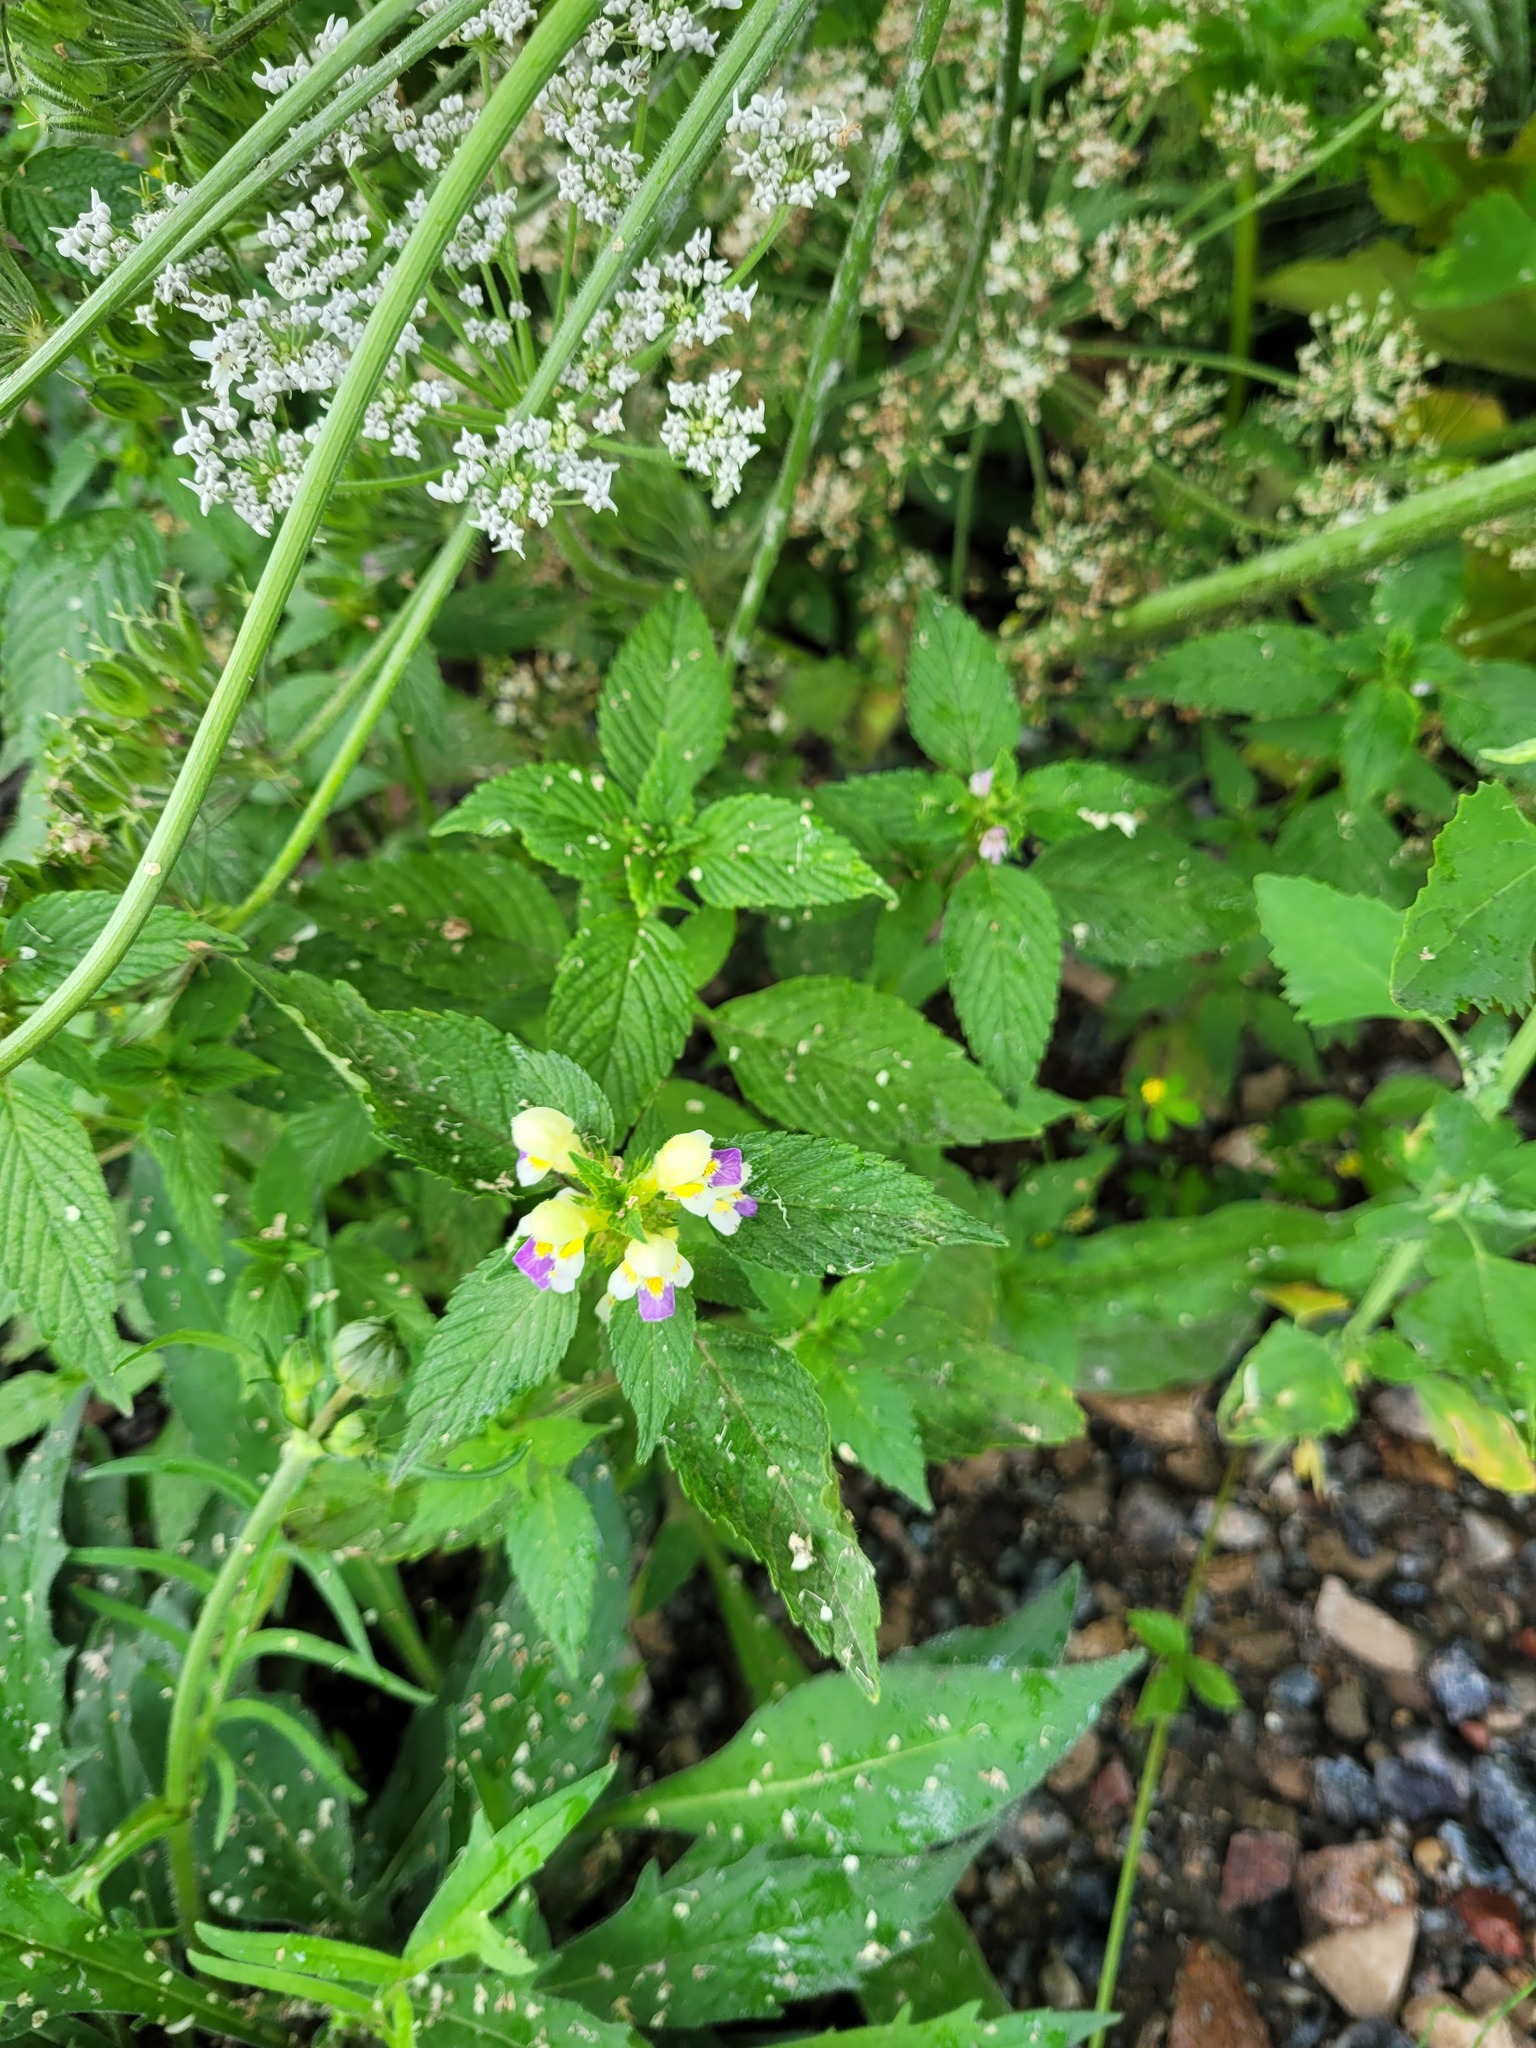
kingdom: Plantae
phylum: Tracheophyta
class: Magnoliopsida
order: Lamiales
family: Lamiaceae
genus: Galeopsis
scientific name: Galeopsis speciosa
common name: Large-flowered hemp-nettle
